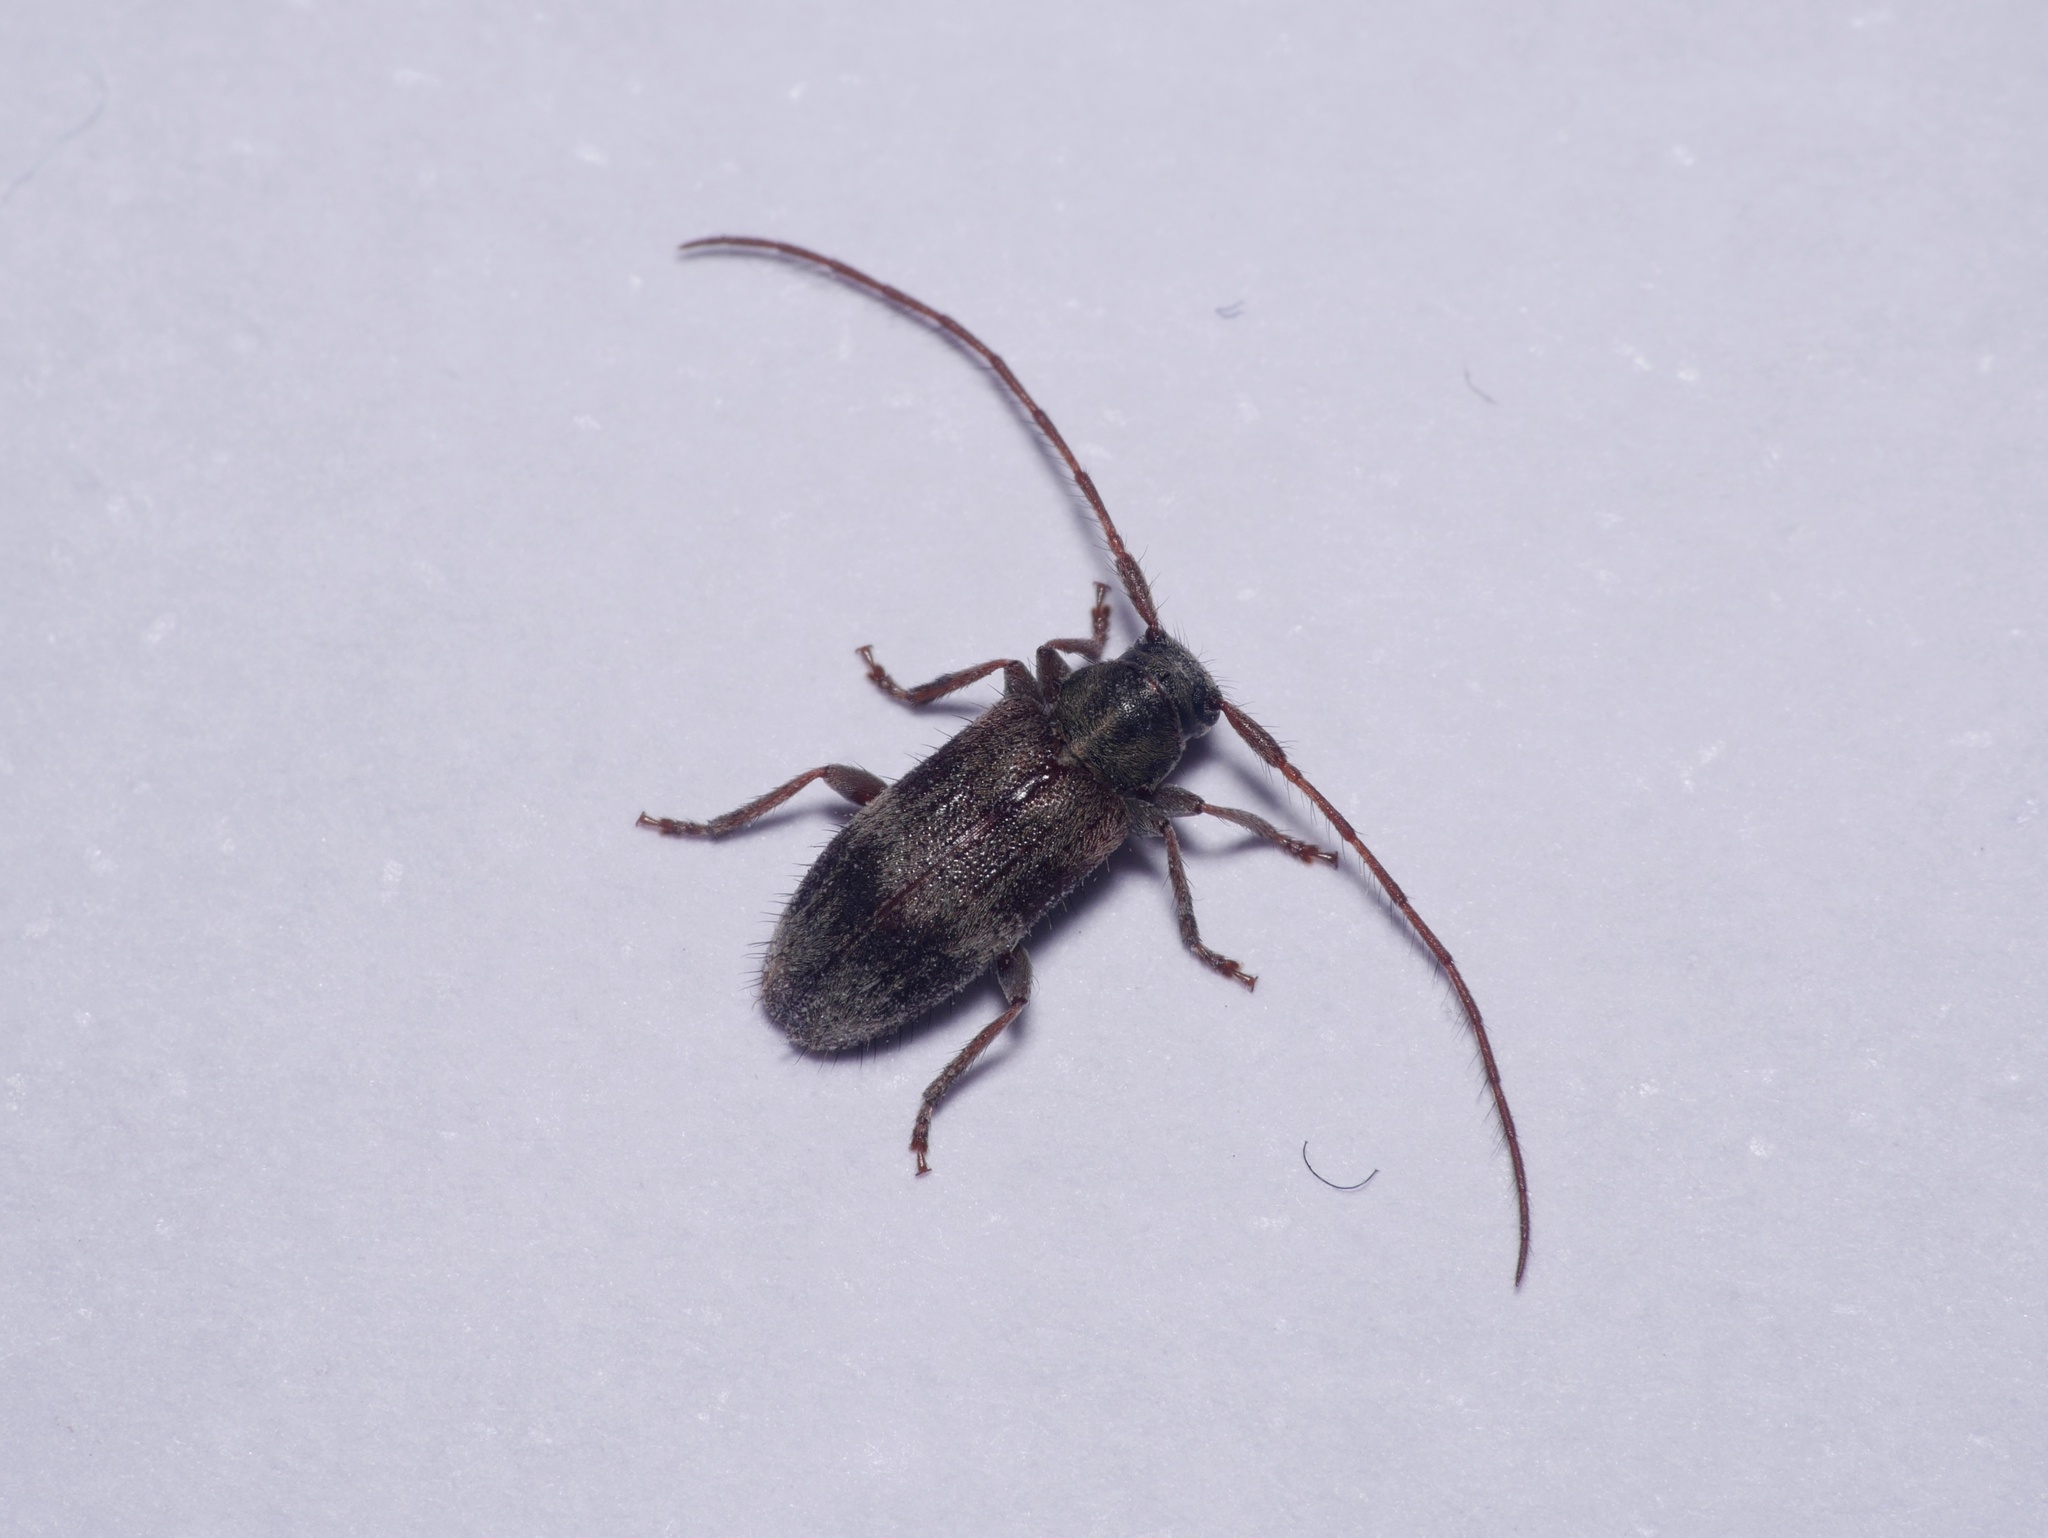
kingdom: Animalia
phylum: Arthropoda
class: Insecta
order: Coleoptera
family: Cerambycidae
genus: Exocentrus
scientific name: Exocentrus lusitanus
